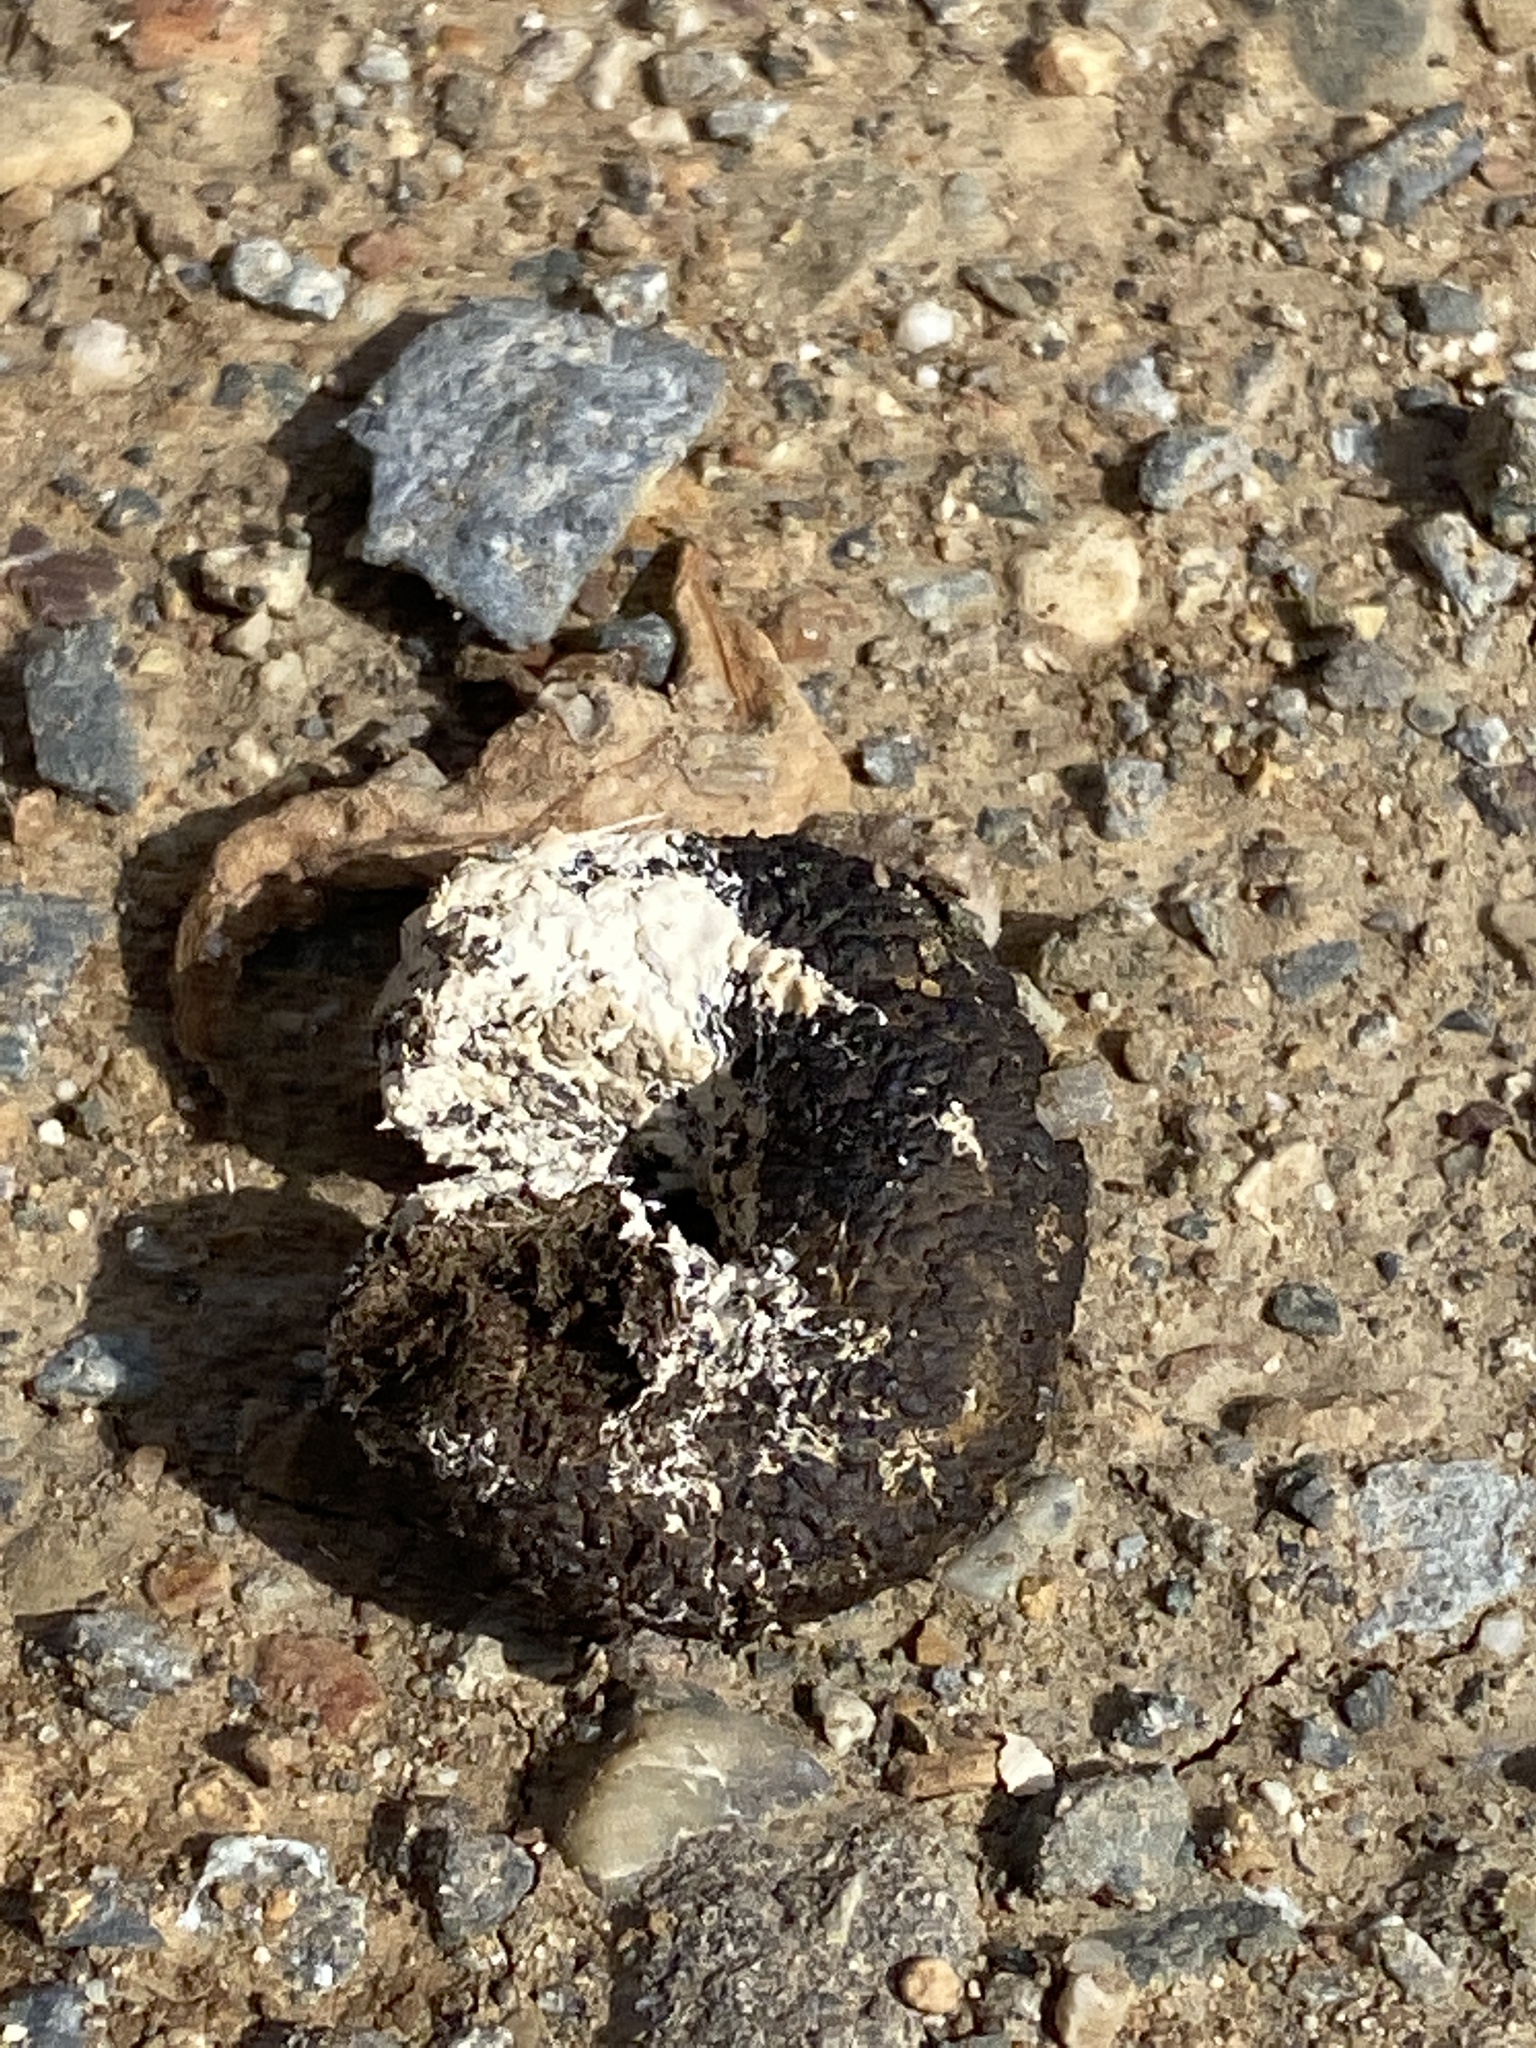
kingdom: Animalia
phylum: Chordata
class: Aves
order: Anseriformes
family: Anatidae
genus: Branta
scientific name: Branta canadensis
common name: Canada goose
